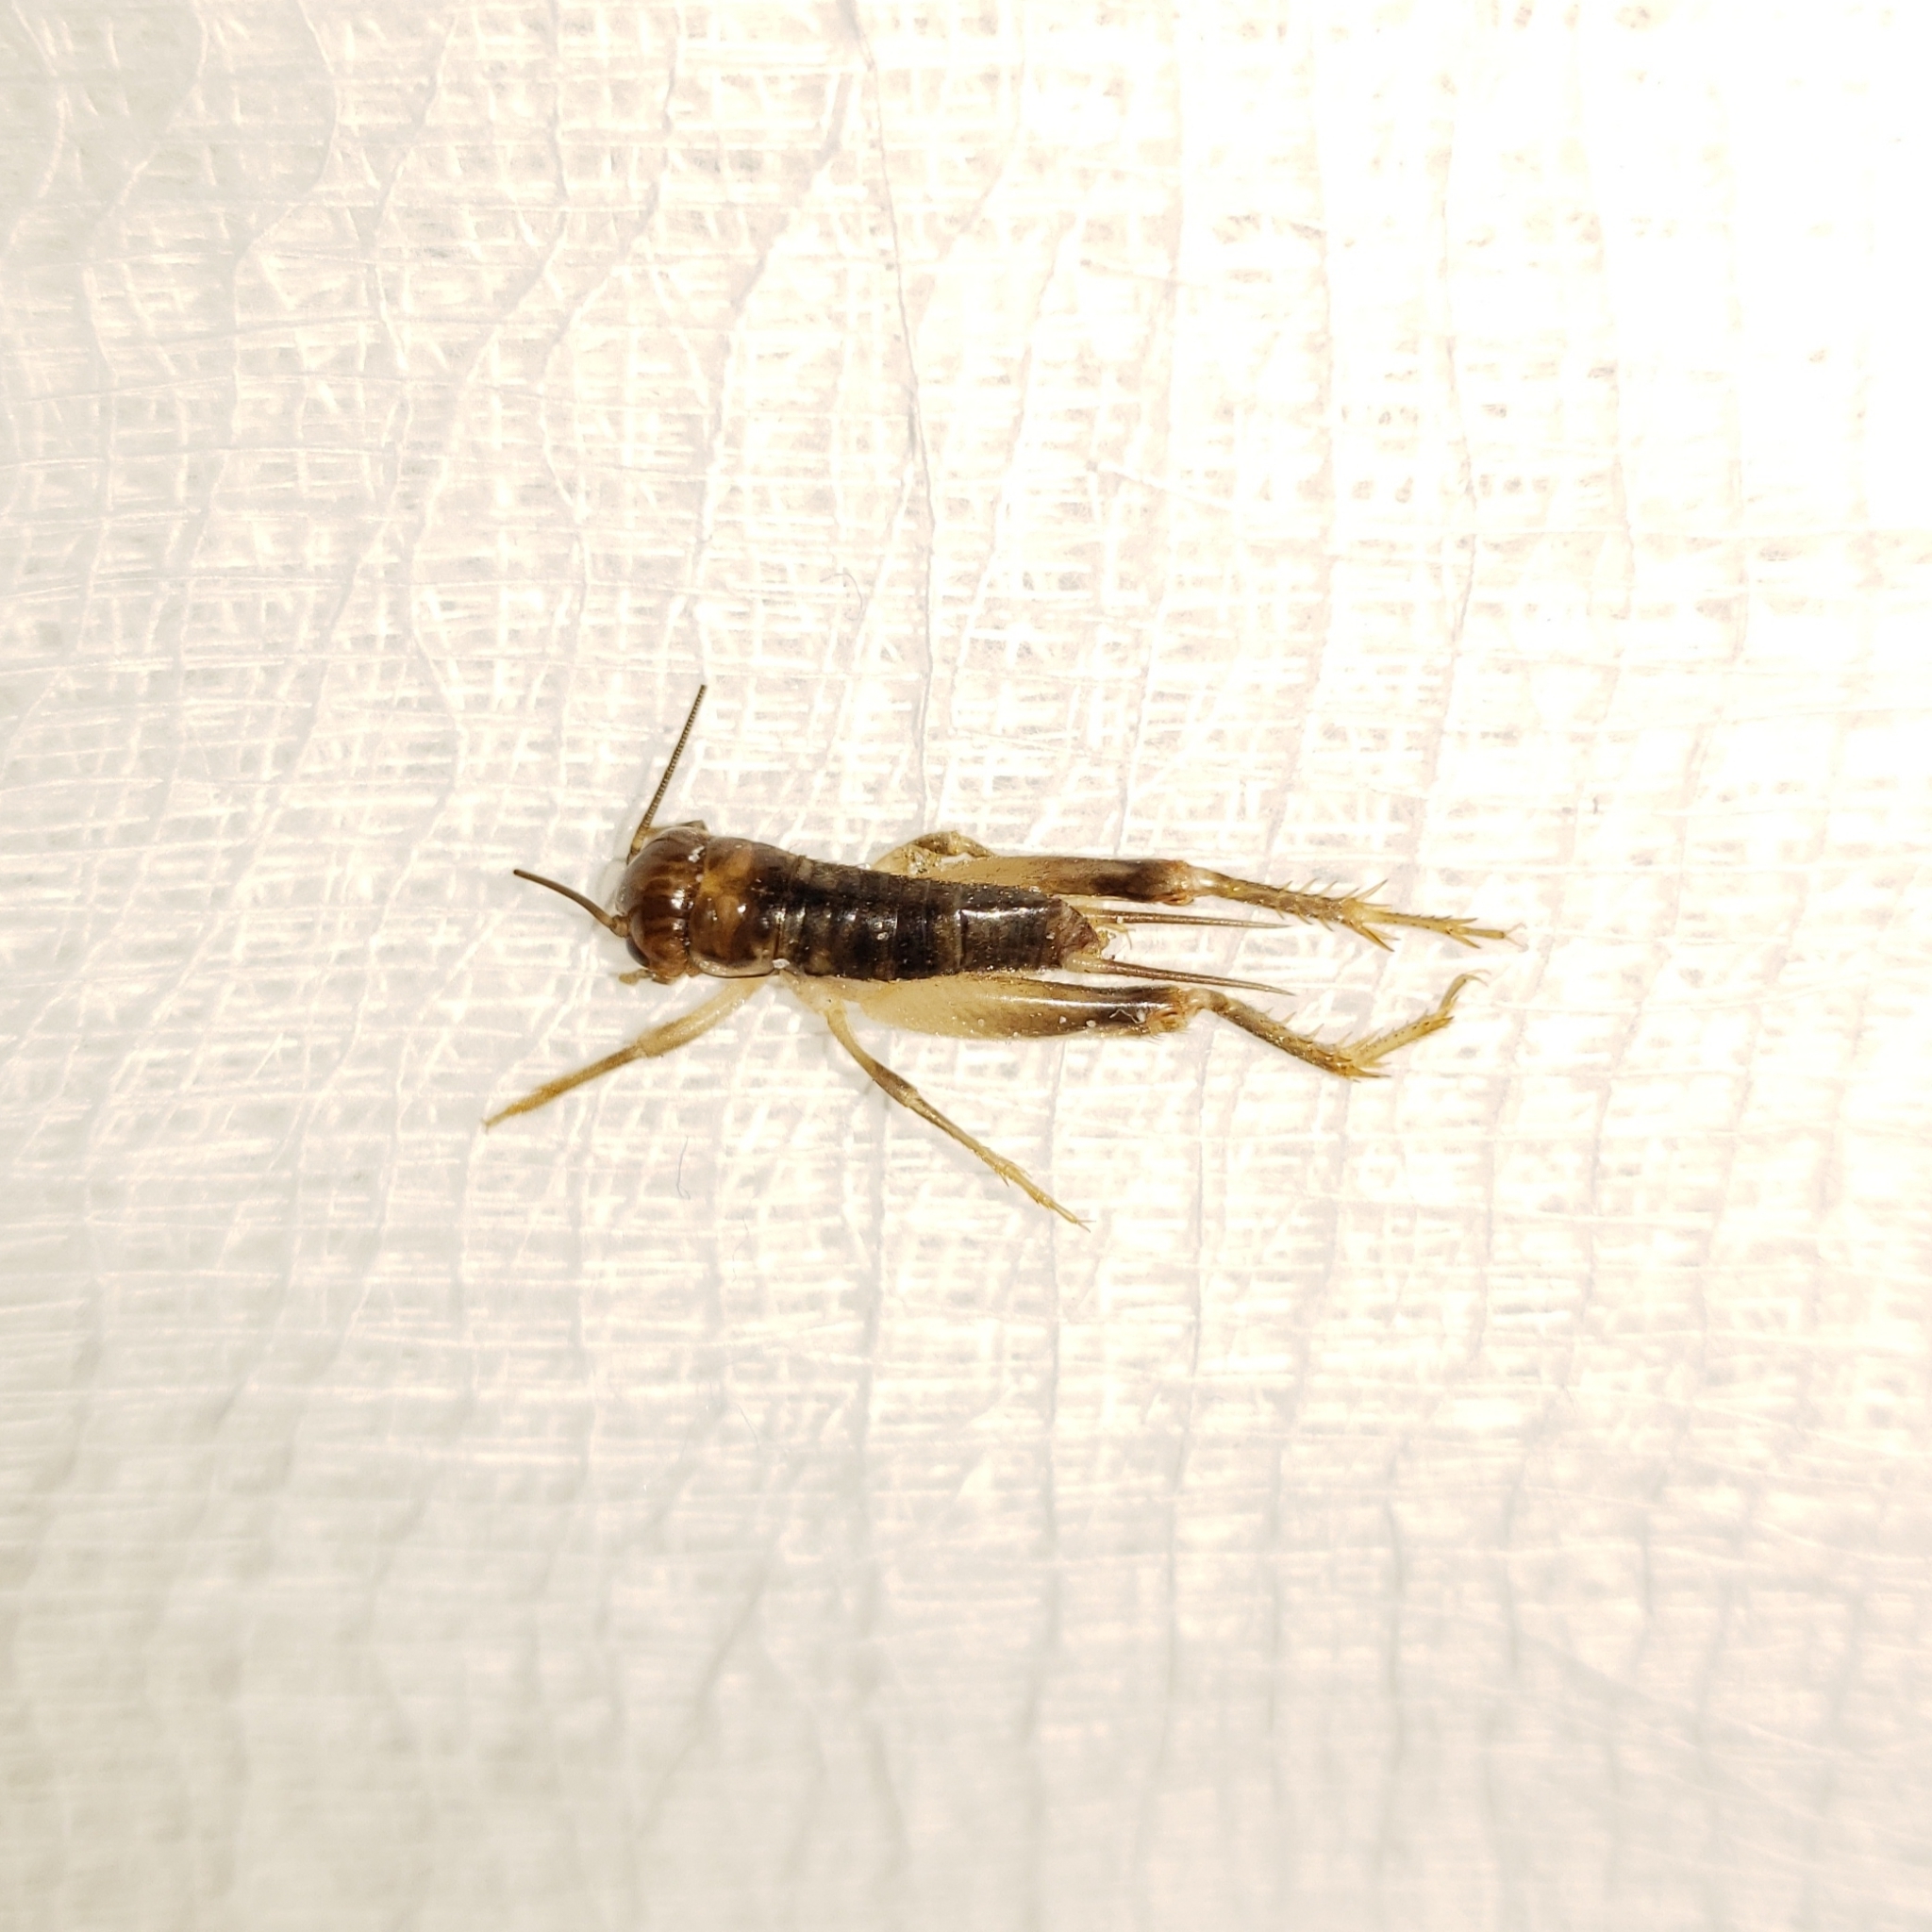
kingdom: Animalia
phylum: Arthropoda
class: Insecta
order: Orthoptera
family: Gryllidae
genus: Anurogryllus
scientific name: Anurogryllus arboreus
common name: Common short-tailed cricket
